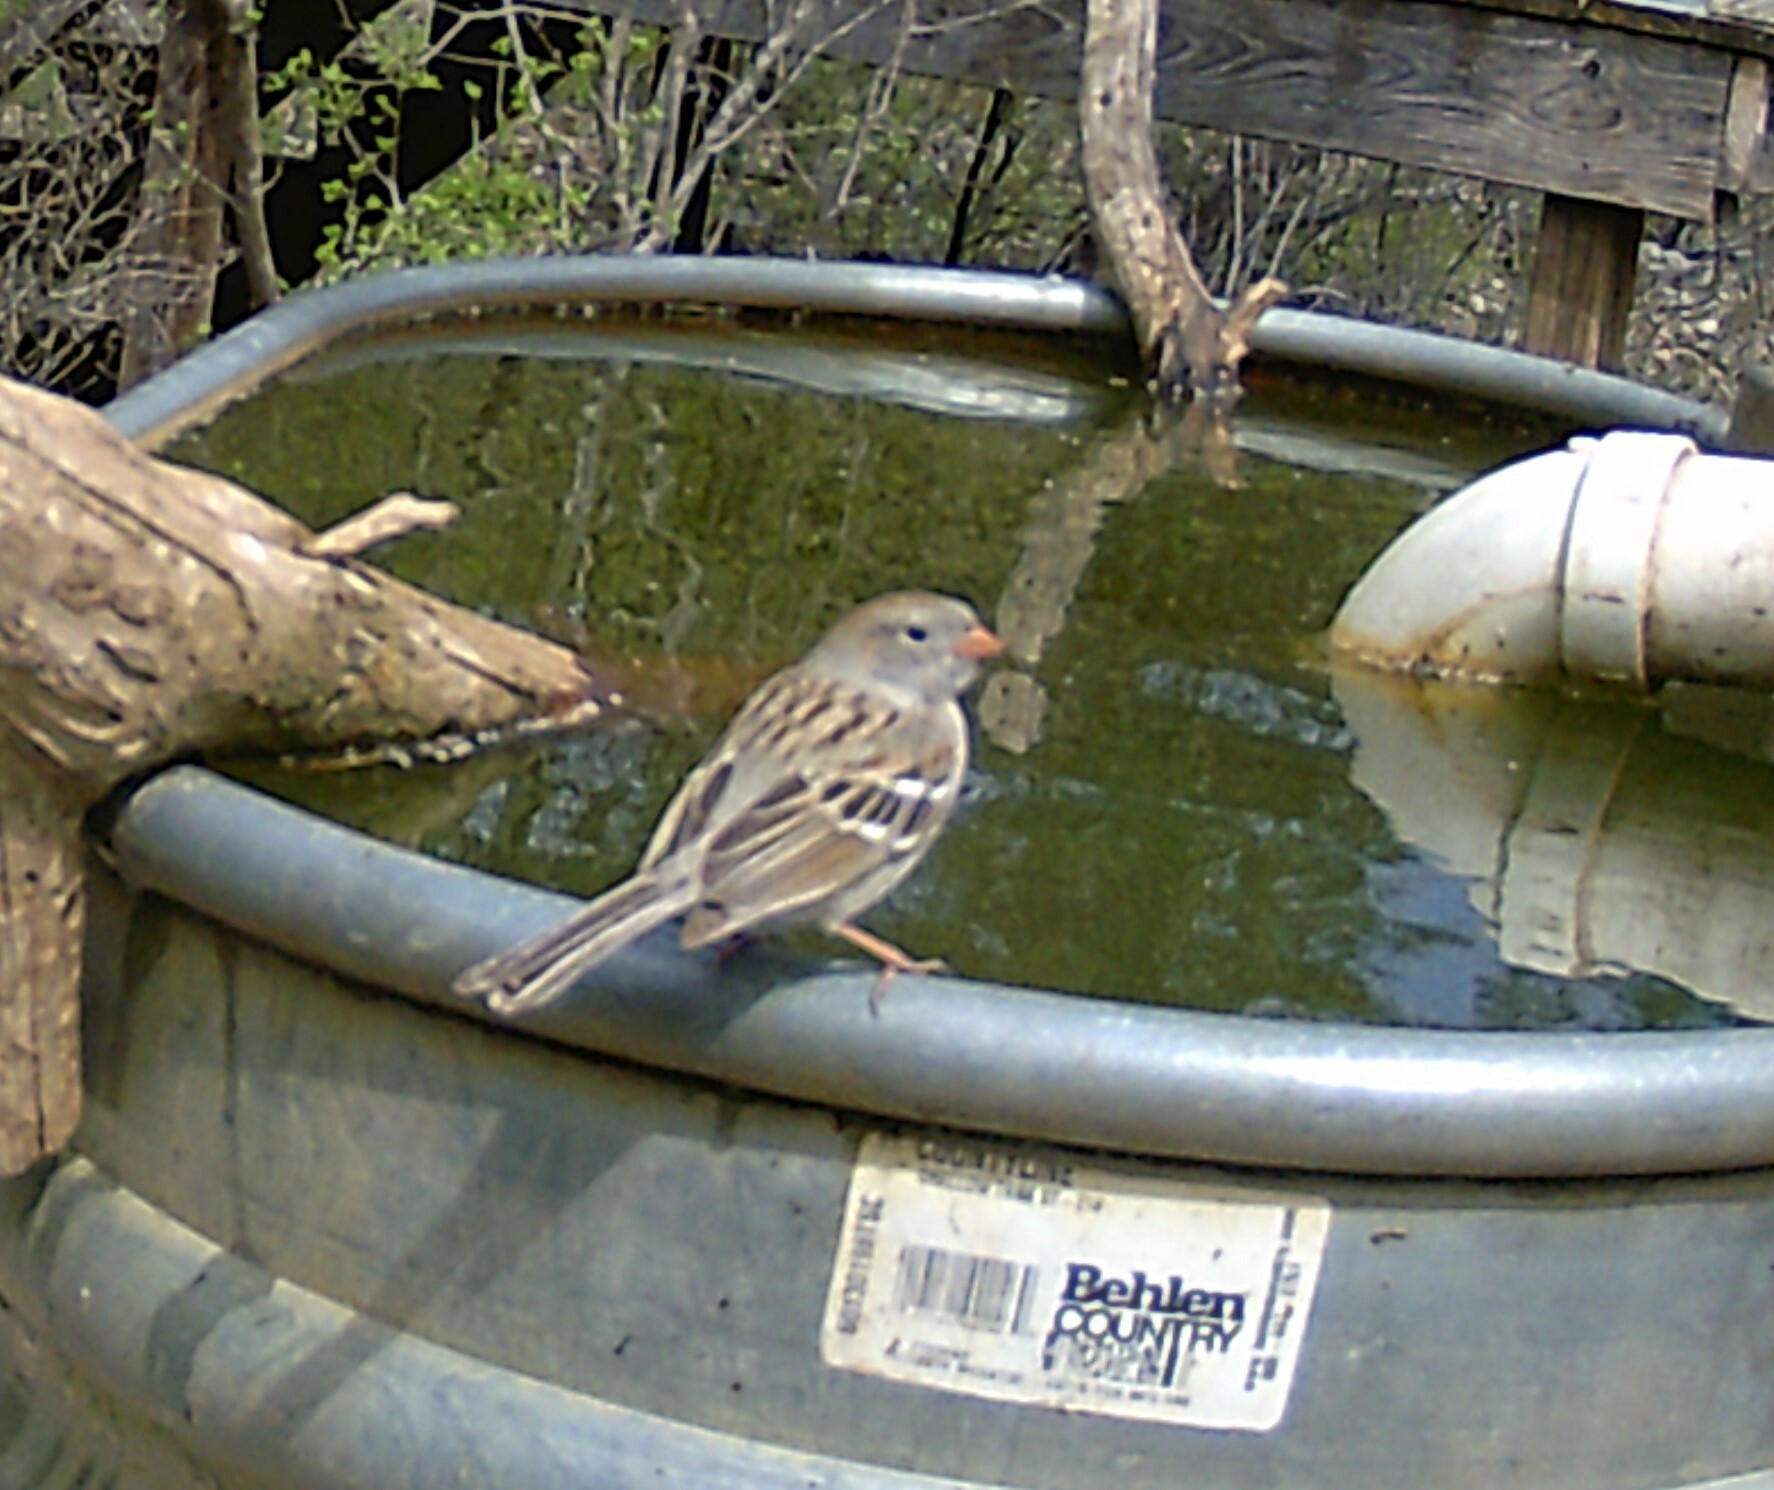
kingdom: Animalia
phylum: Chordata
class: Aves
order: Passeriformes
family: Passerellidae
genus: Spizella
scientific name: Spizella pusilla
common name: Field sparrow
